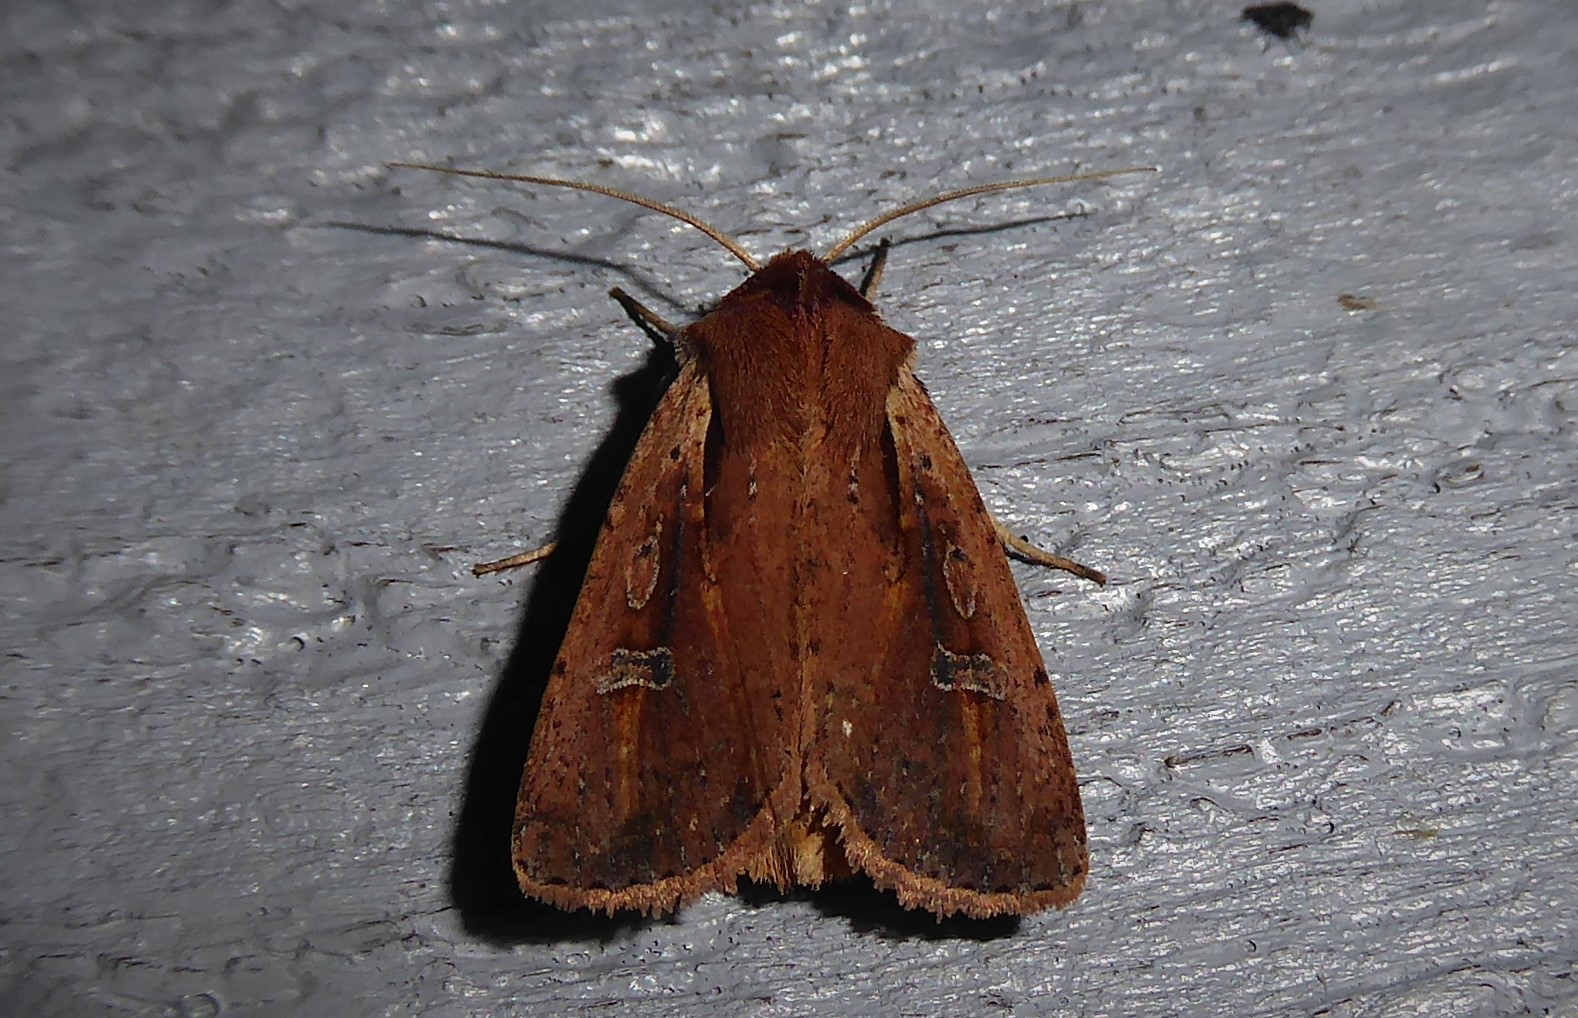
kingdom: Animalia
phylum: Arthropoda
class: Insecta
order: Lepidoptera
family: Noctuidae
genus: Ichneutica
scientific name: Ichneutica atristriga
